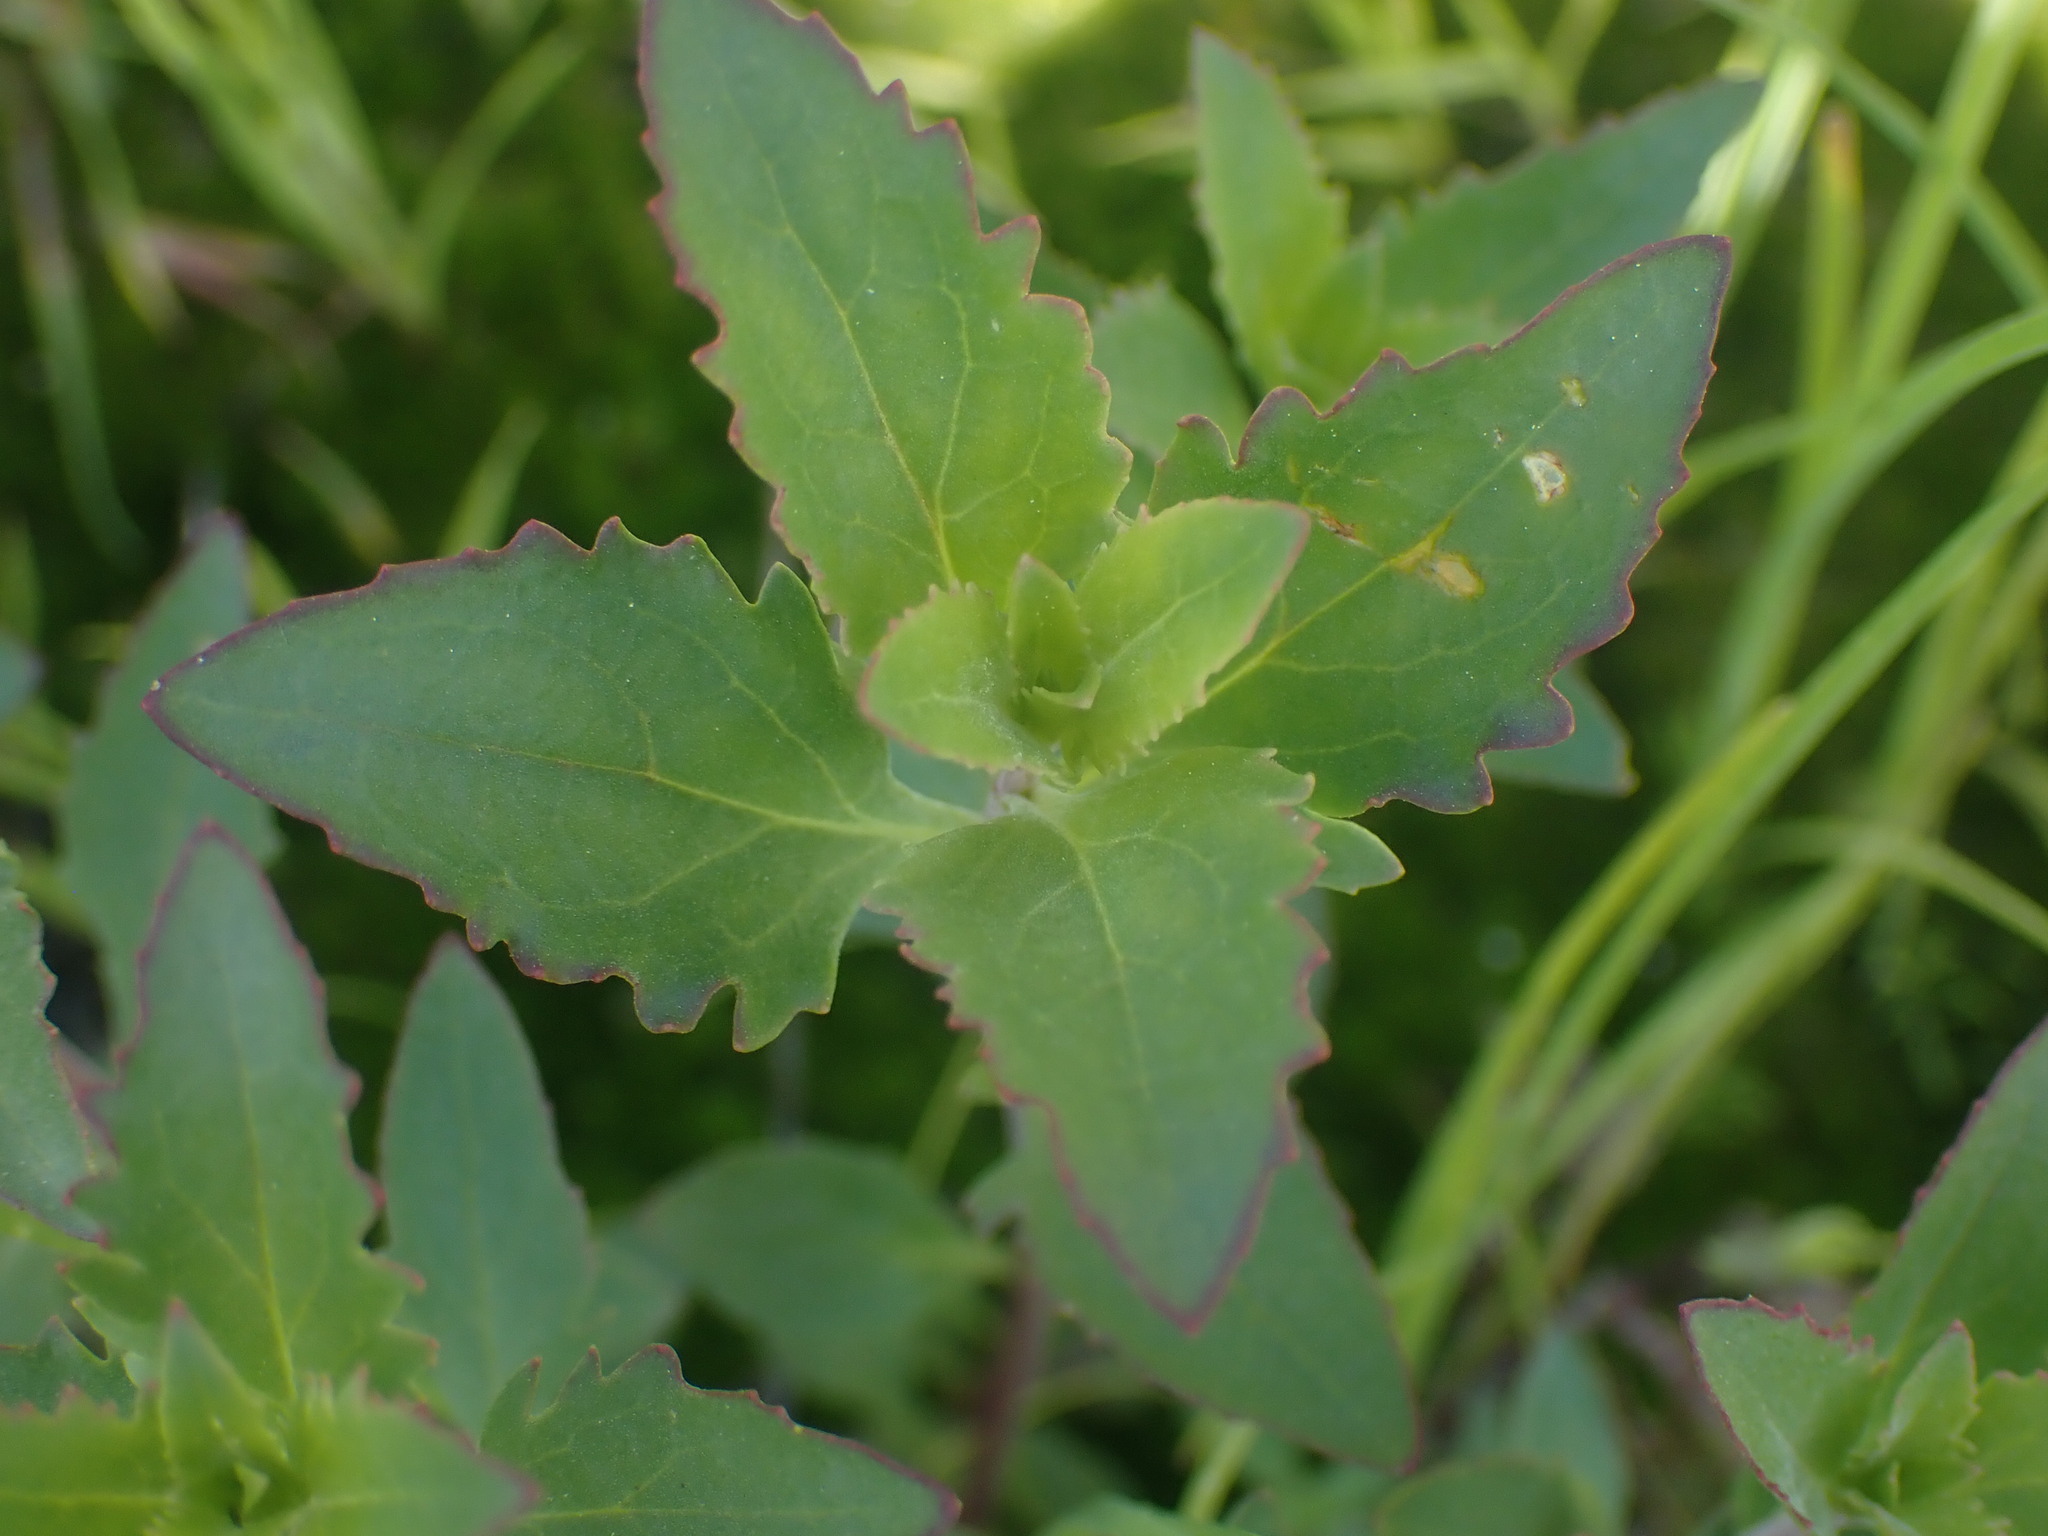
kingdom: Plantae
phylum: Tracheophyta
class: Magnoliopsida
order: Lamiales
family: Plantaginaceae
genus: Penstemon
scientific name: Penstemon richardsonii
